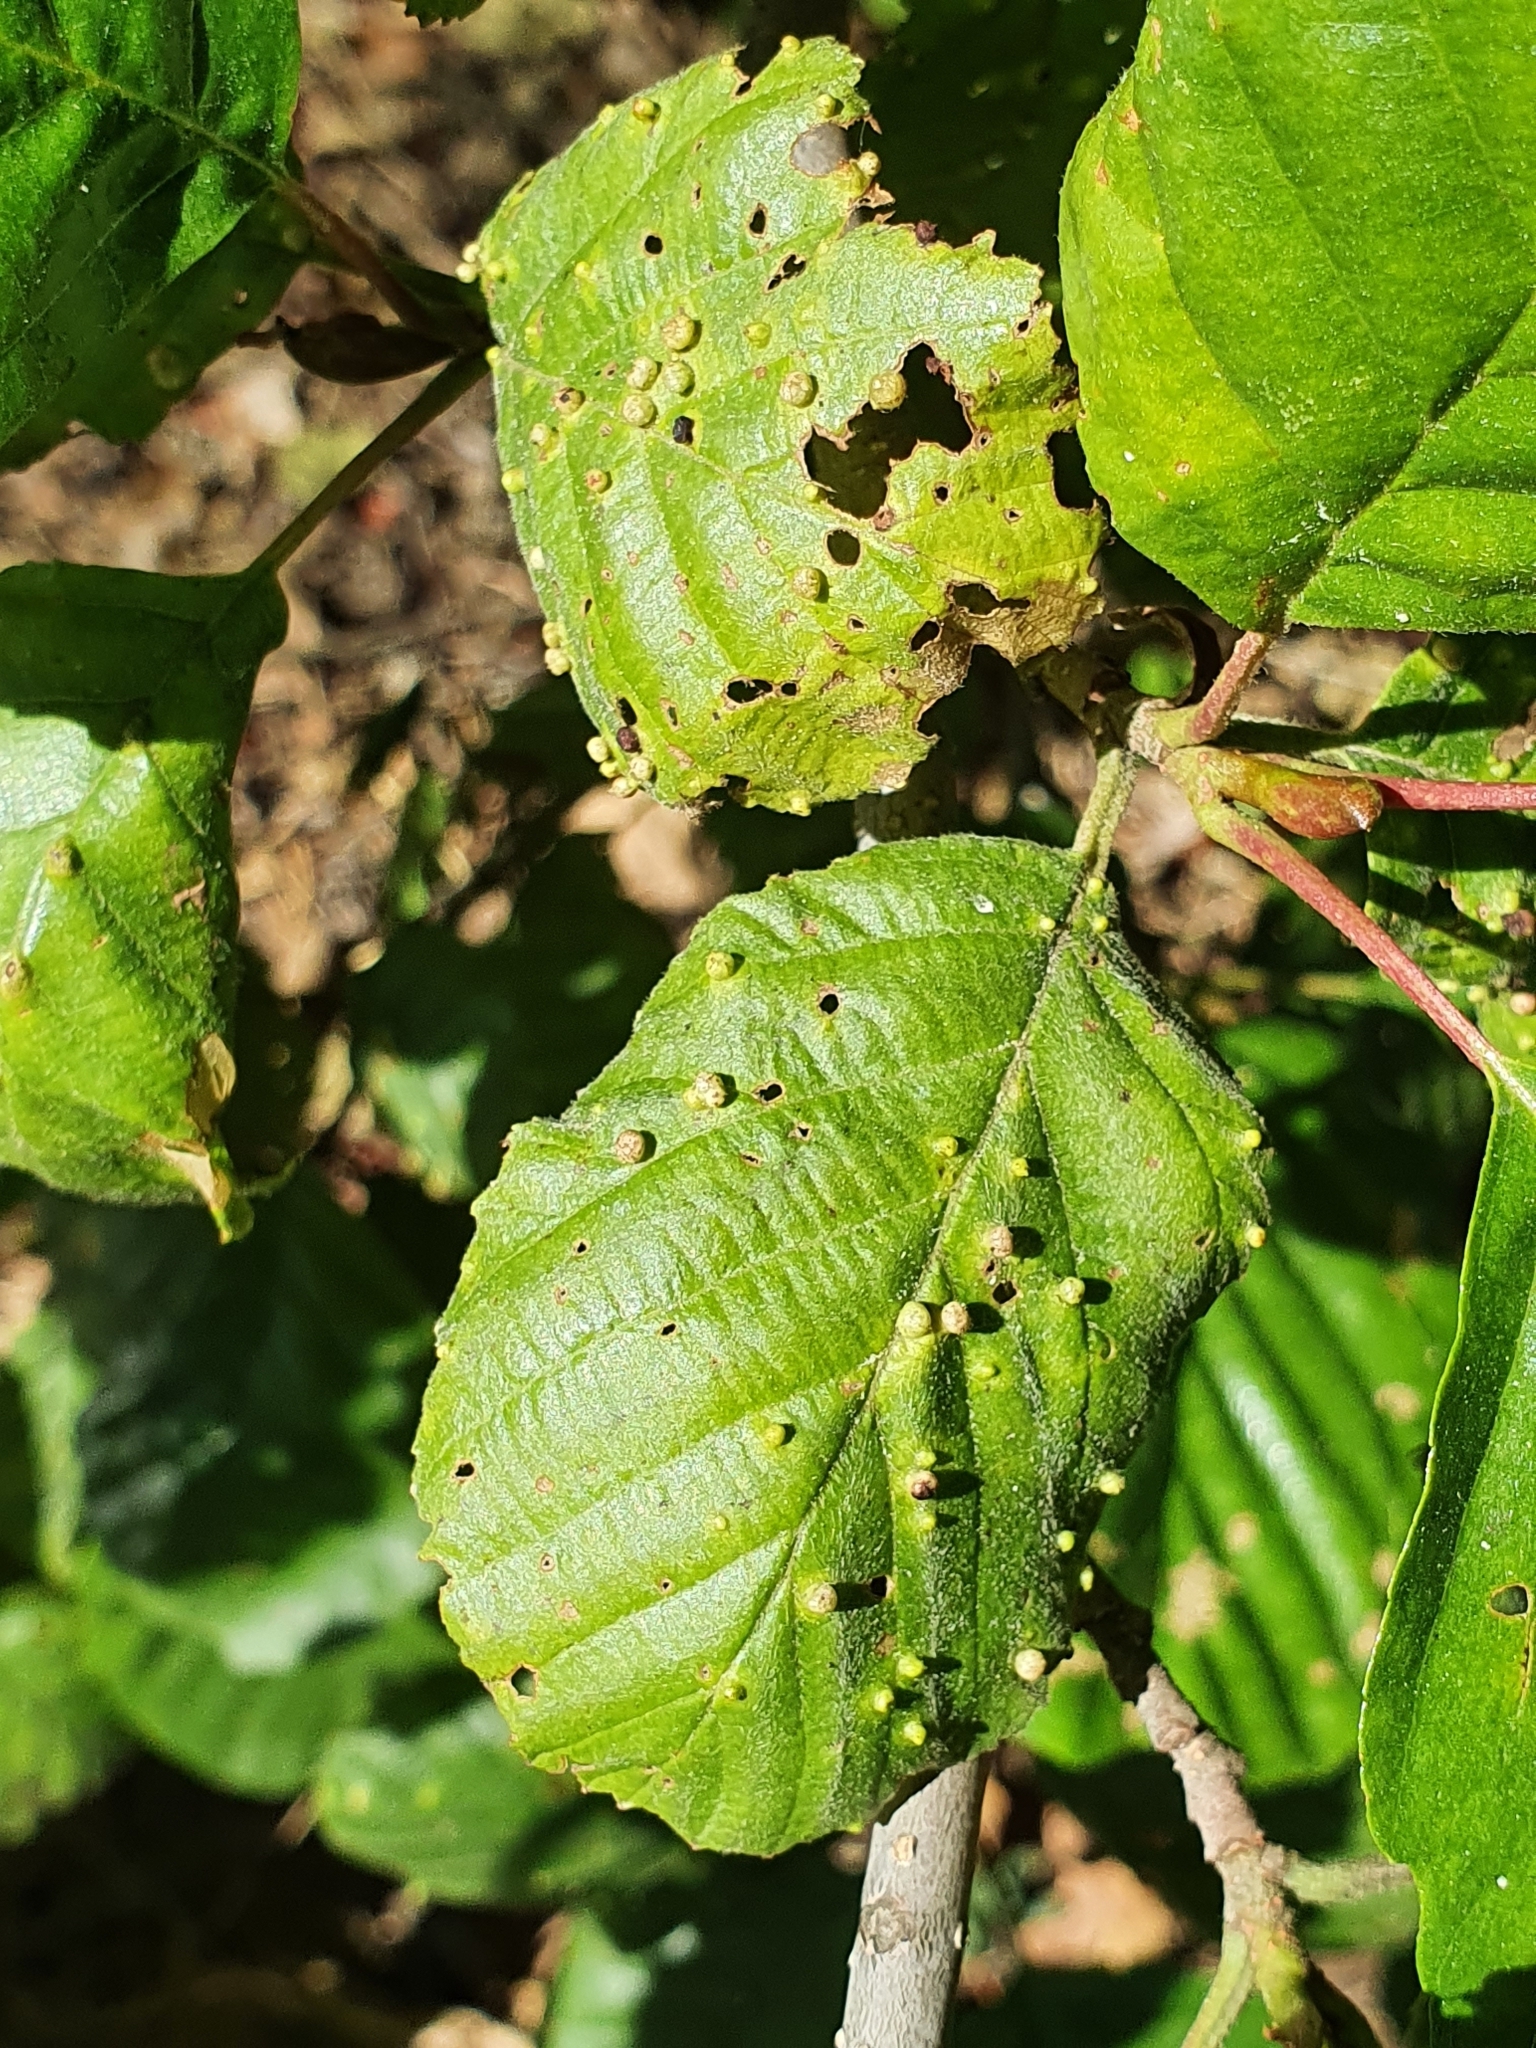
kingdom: Animalia
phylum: Arthropoda
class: Arachnida
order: Trombidiformes
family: Eriophyidae
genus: Eriophyes
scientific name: Eriophyes laevis
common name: Alder leaf gall mite
